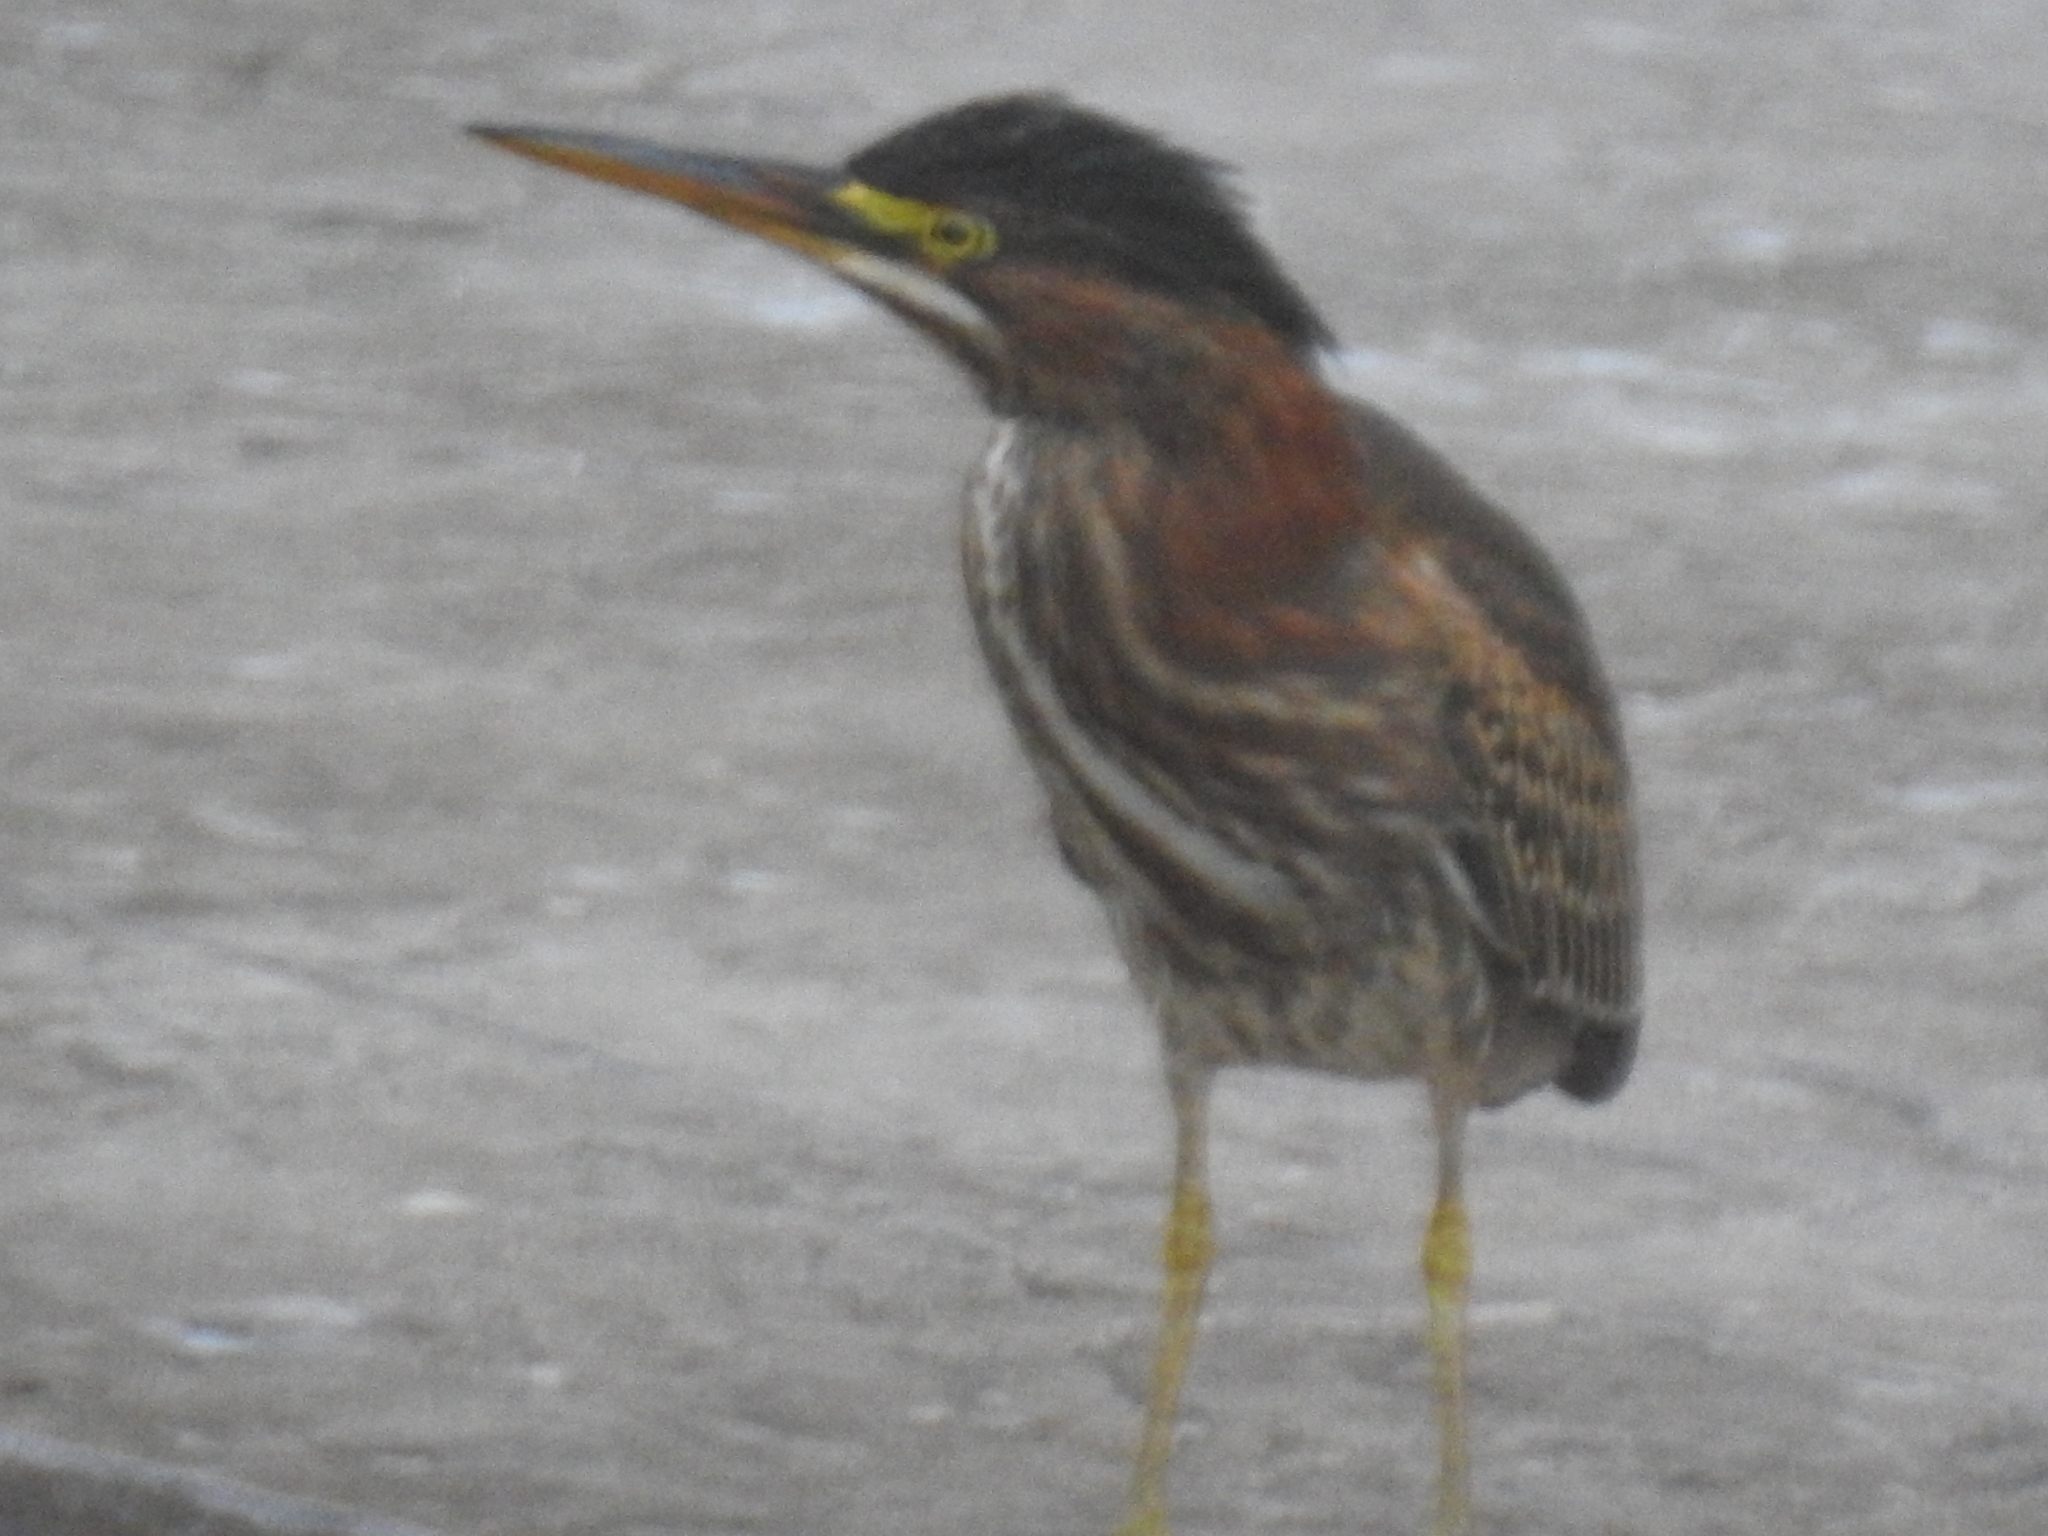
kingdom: Animalia
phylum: Chordata
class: Aves
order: Pelecaniformes
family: Ardeidae
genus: Butorides
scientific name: Butorides virescens
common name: Green heron
